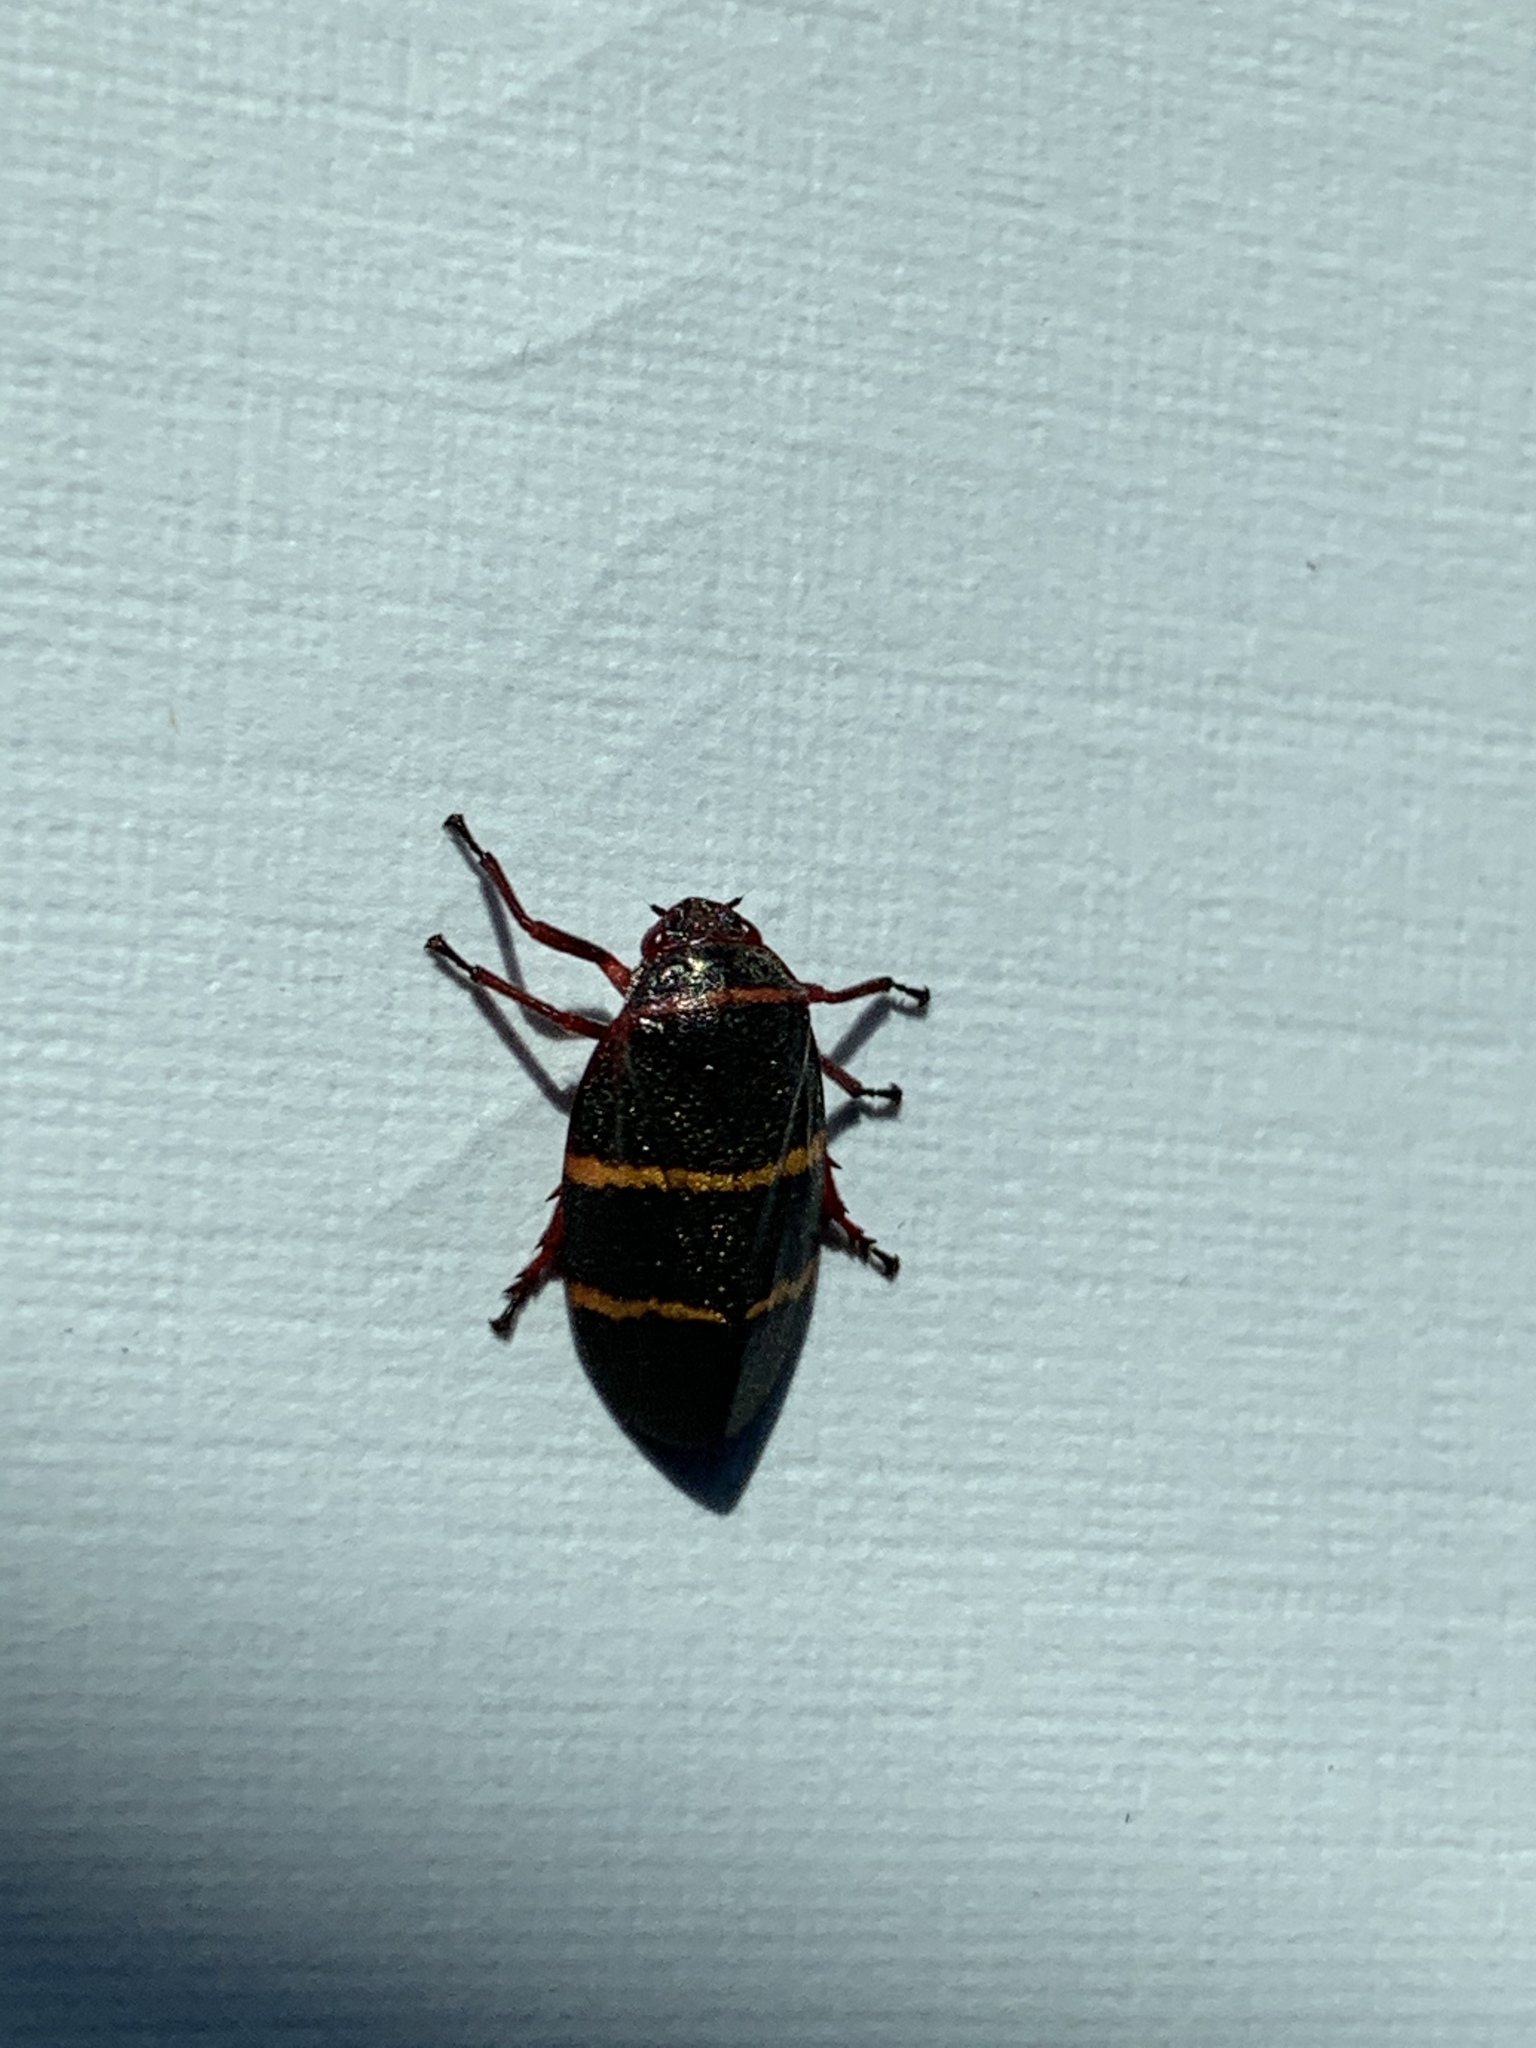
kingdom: Animalia
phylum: Arthropoda
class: Insecta
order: Hemiptera
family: Cercopidae
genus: Prosapia
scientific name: Prosapia bicincta
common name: Twolined spittlebug
